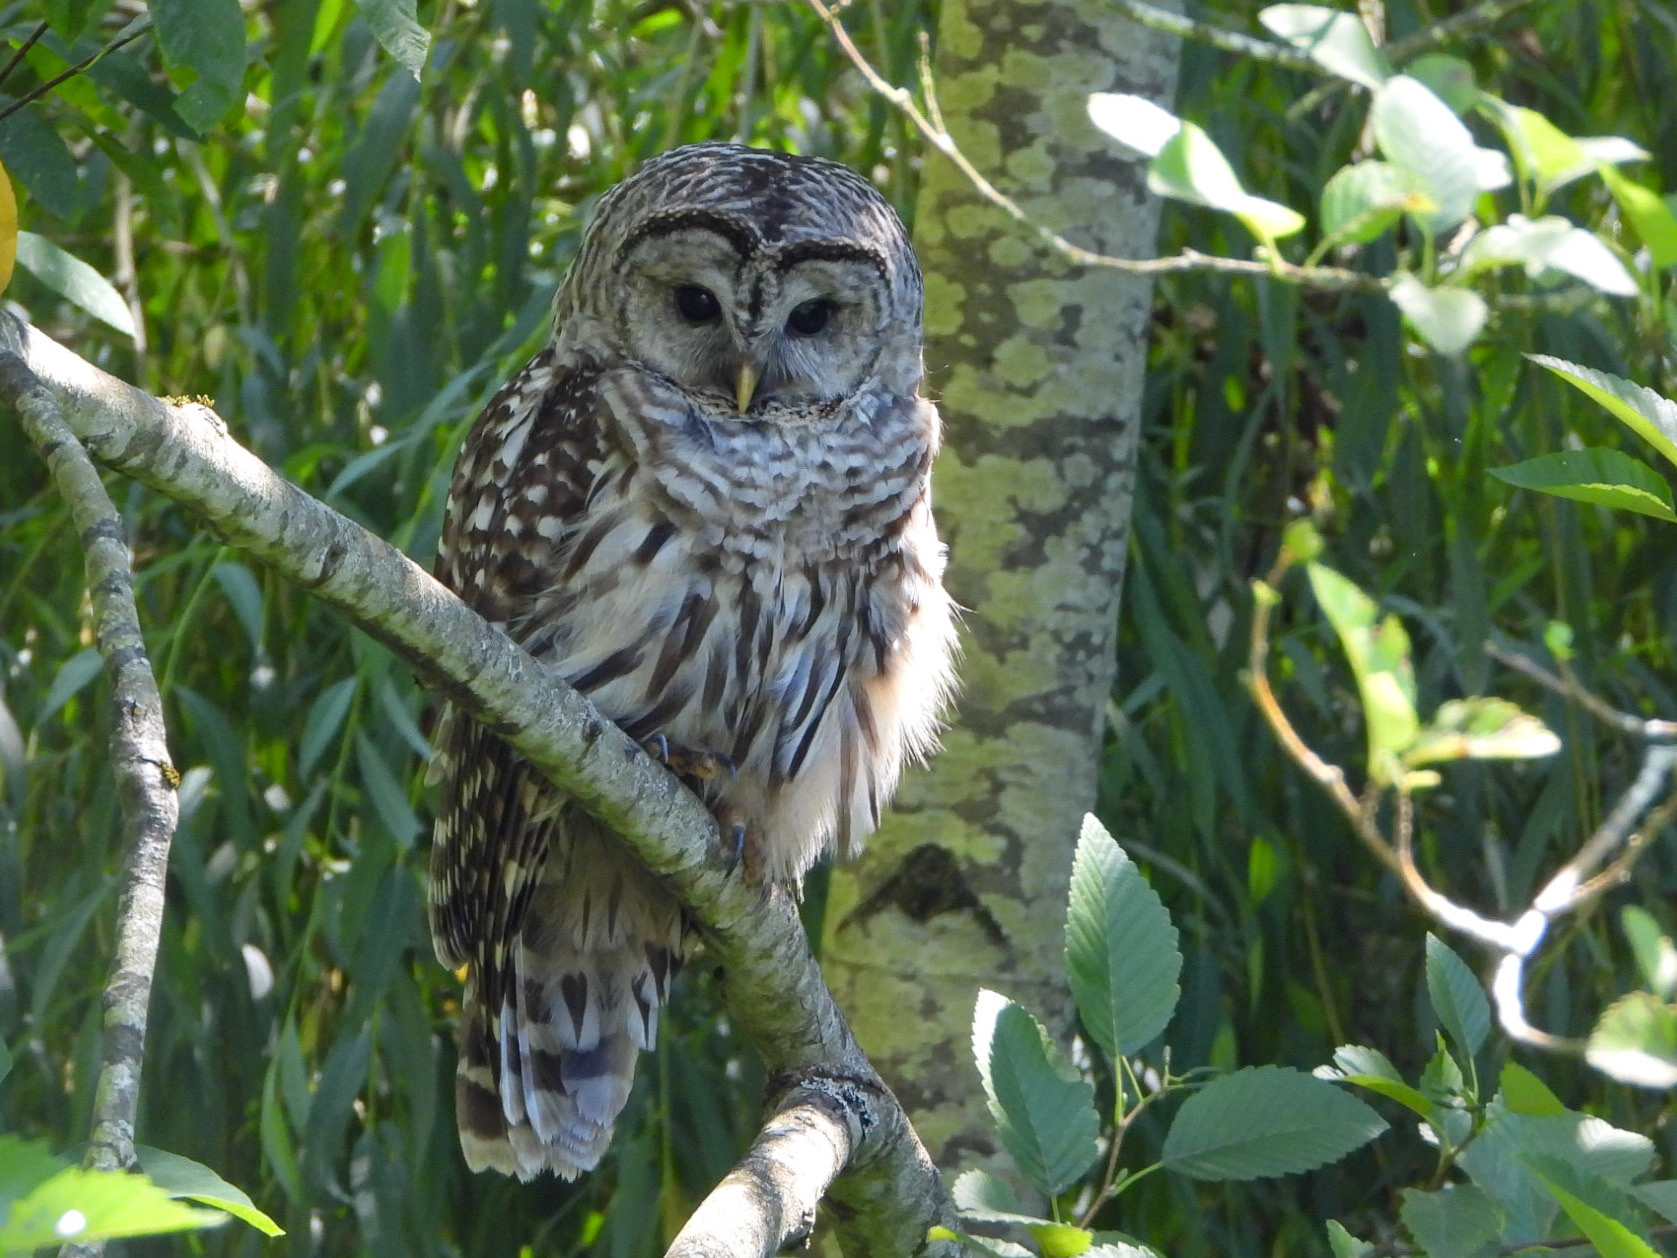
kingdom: Animalia
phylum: Chordata
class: Aves
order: Strigiformes
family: Strigidae
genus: Strix
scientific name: Strix varia
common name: Barred owl
